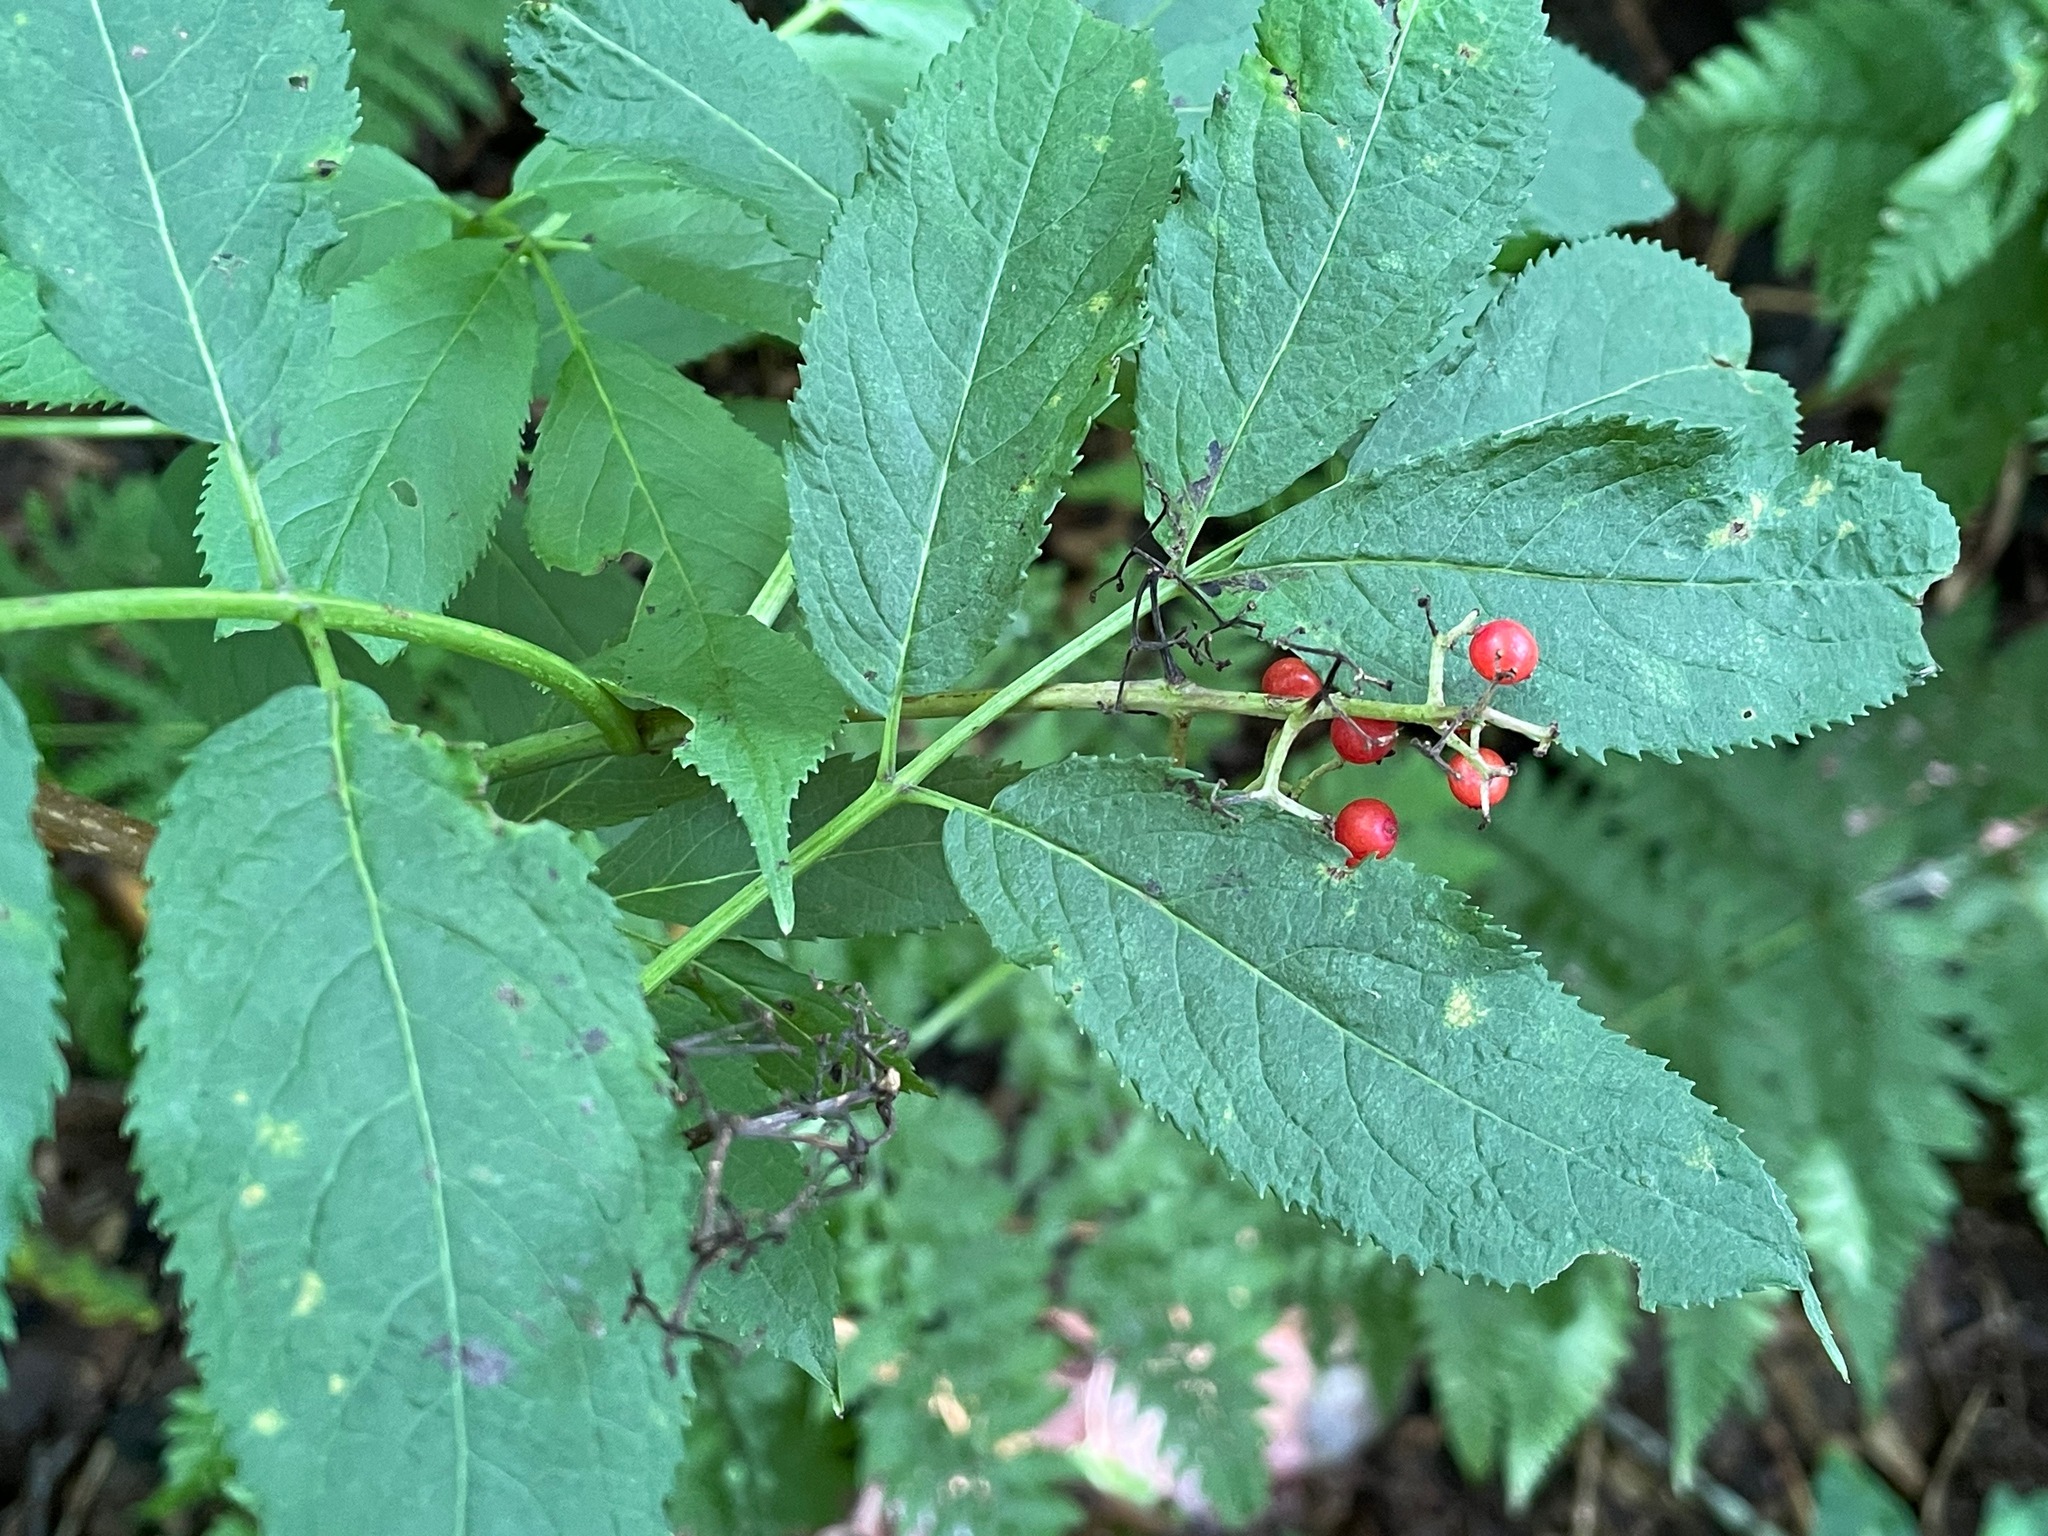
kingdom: Plantae
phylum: Tracheophyta
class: Magnoliopsida
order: Dipsacales
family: Viburnaceae
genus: Sambucus
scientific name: Sambucus racemosa
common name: Red-berried elder
